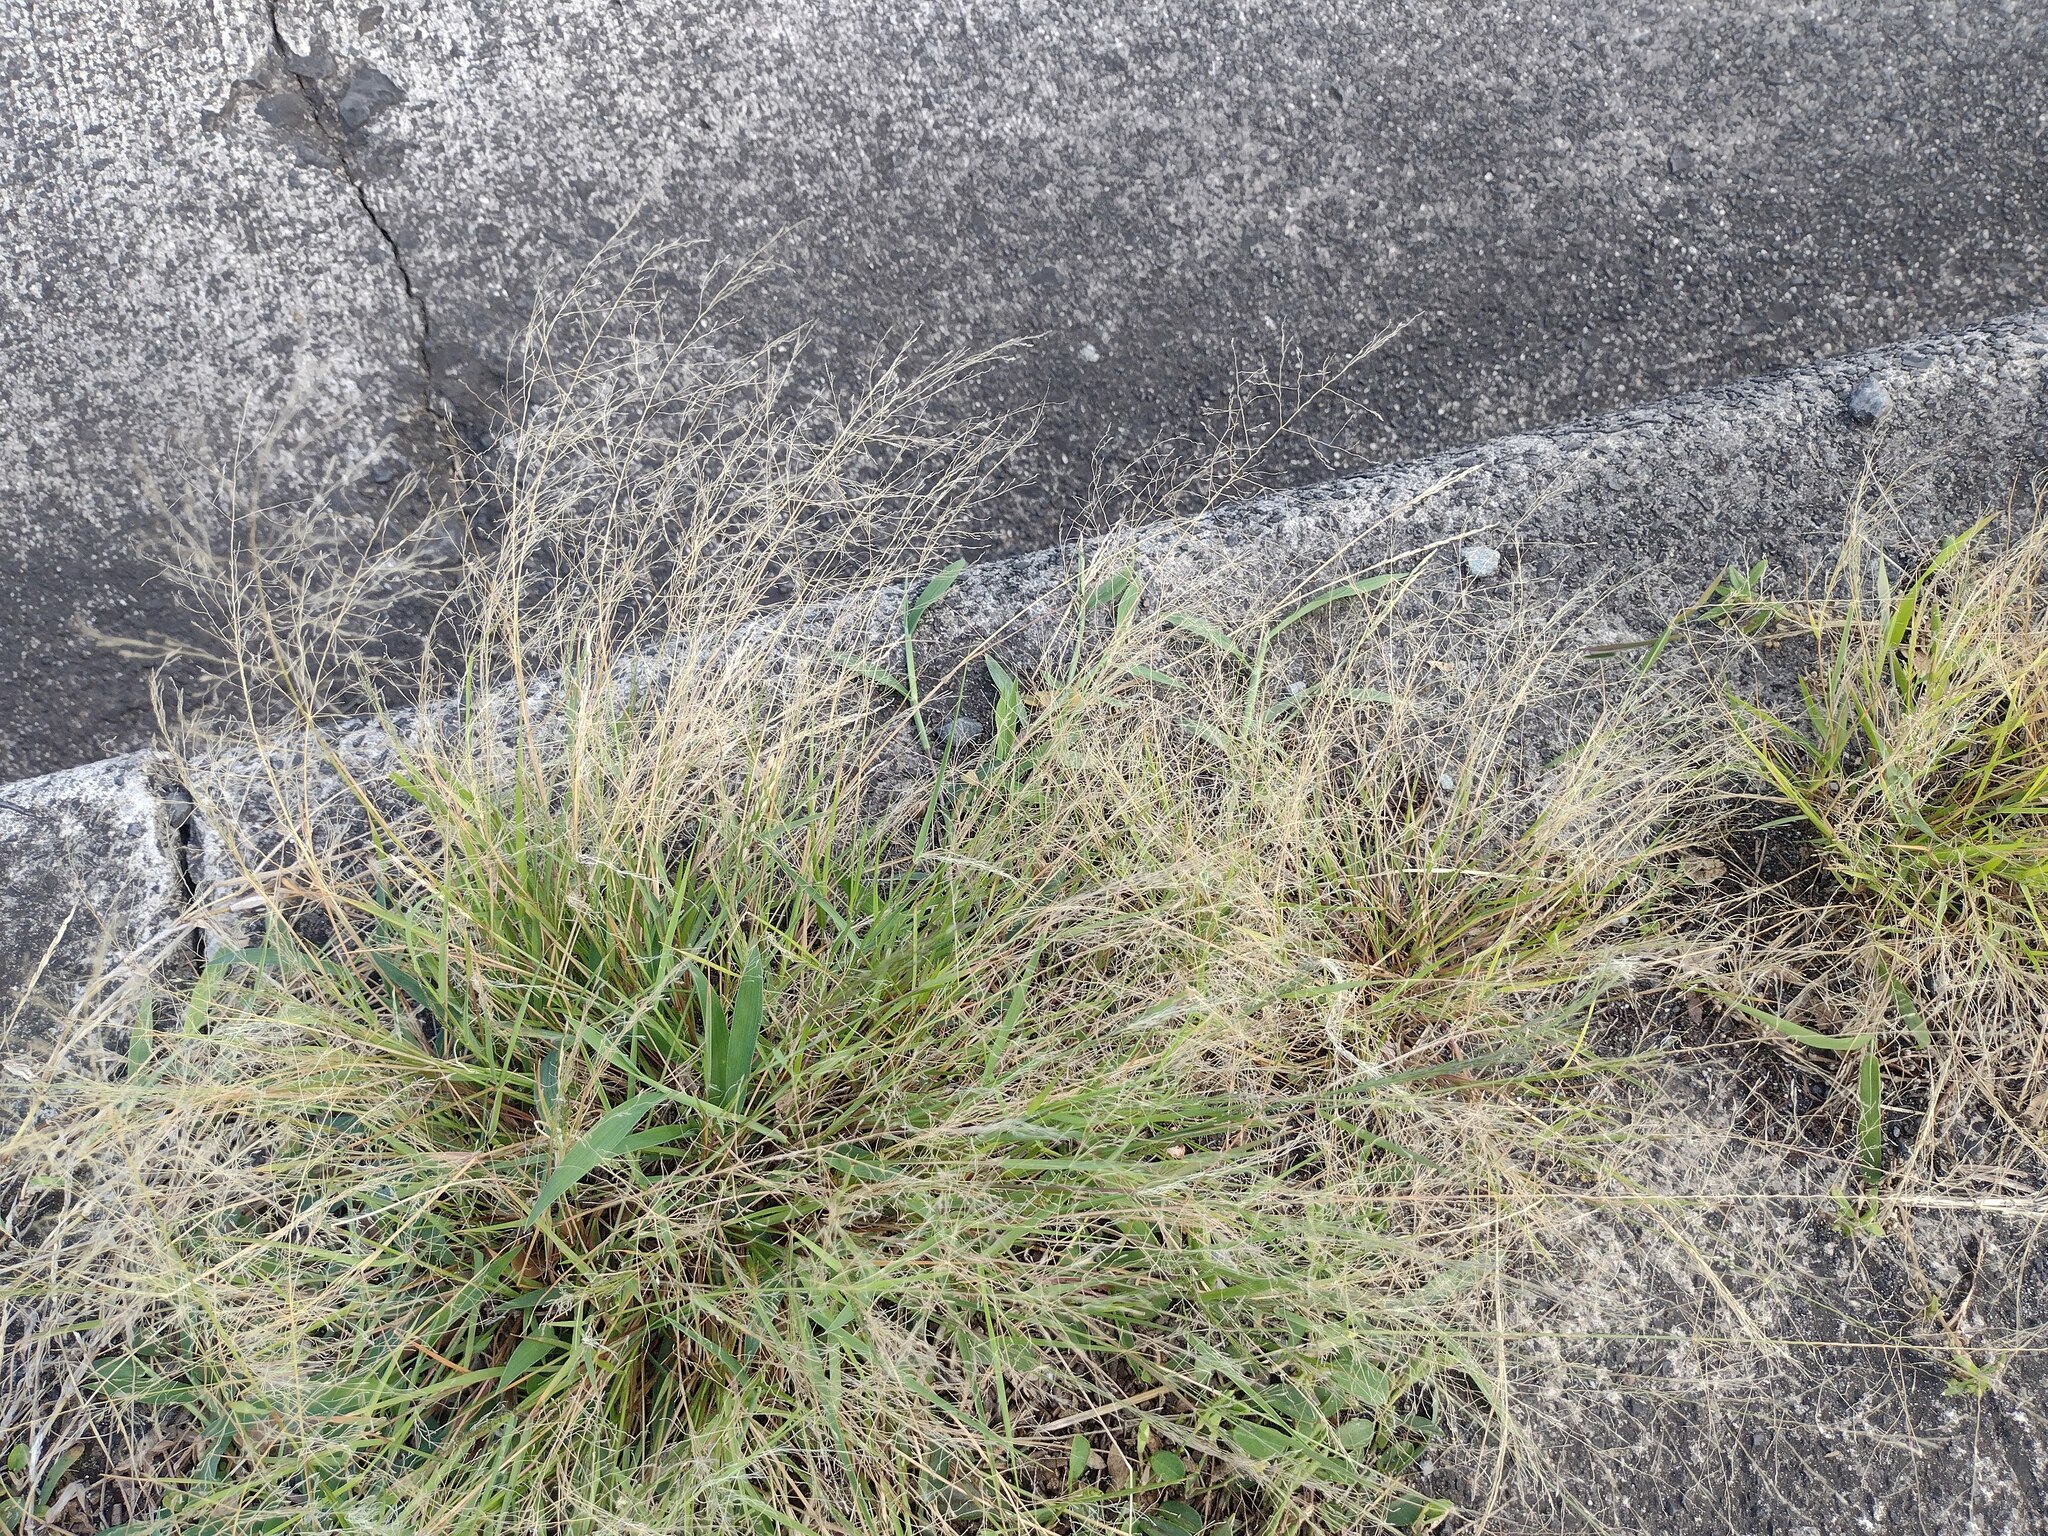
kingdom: Plantae
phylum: Tracheophyta
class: Liliopsida
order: Poales
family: Poaceae
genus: Eragrostis
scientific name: Eragrostis pilosa
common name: Indian lovegrass
